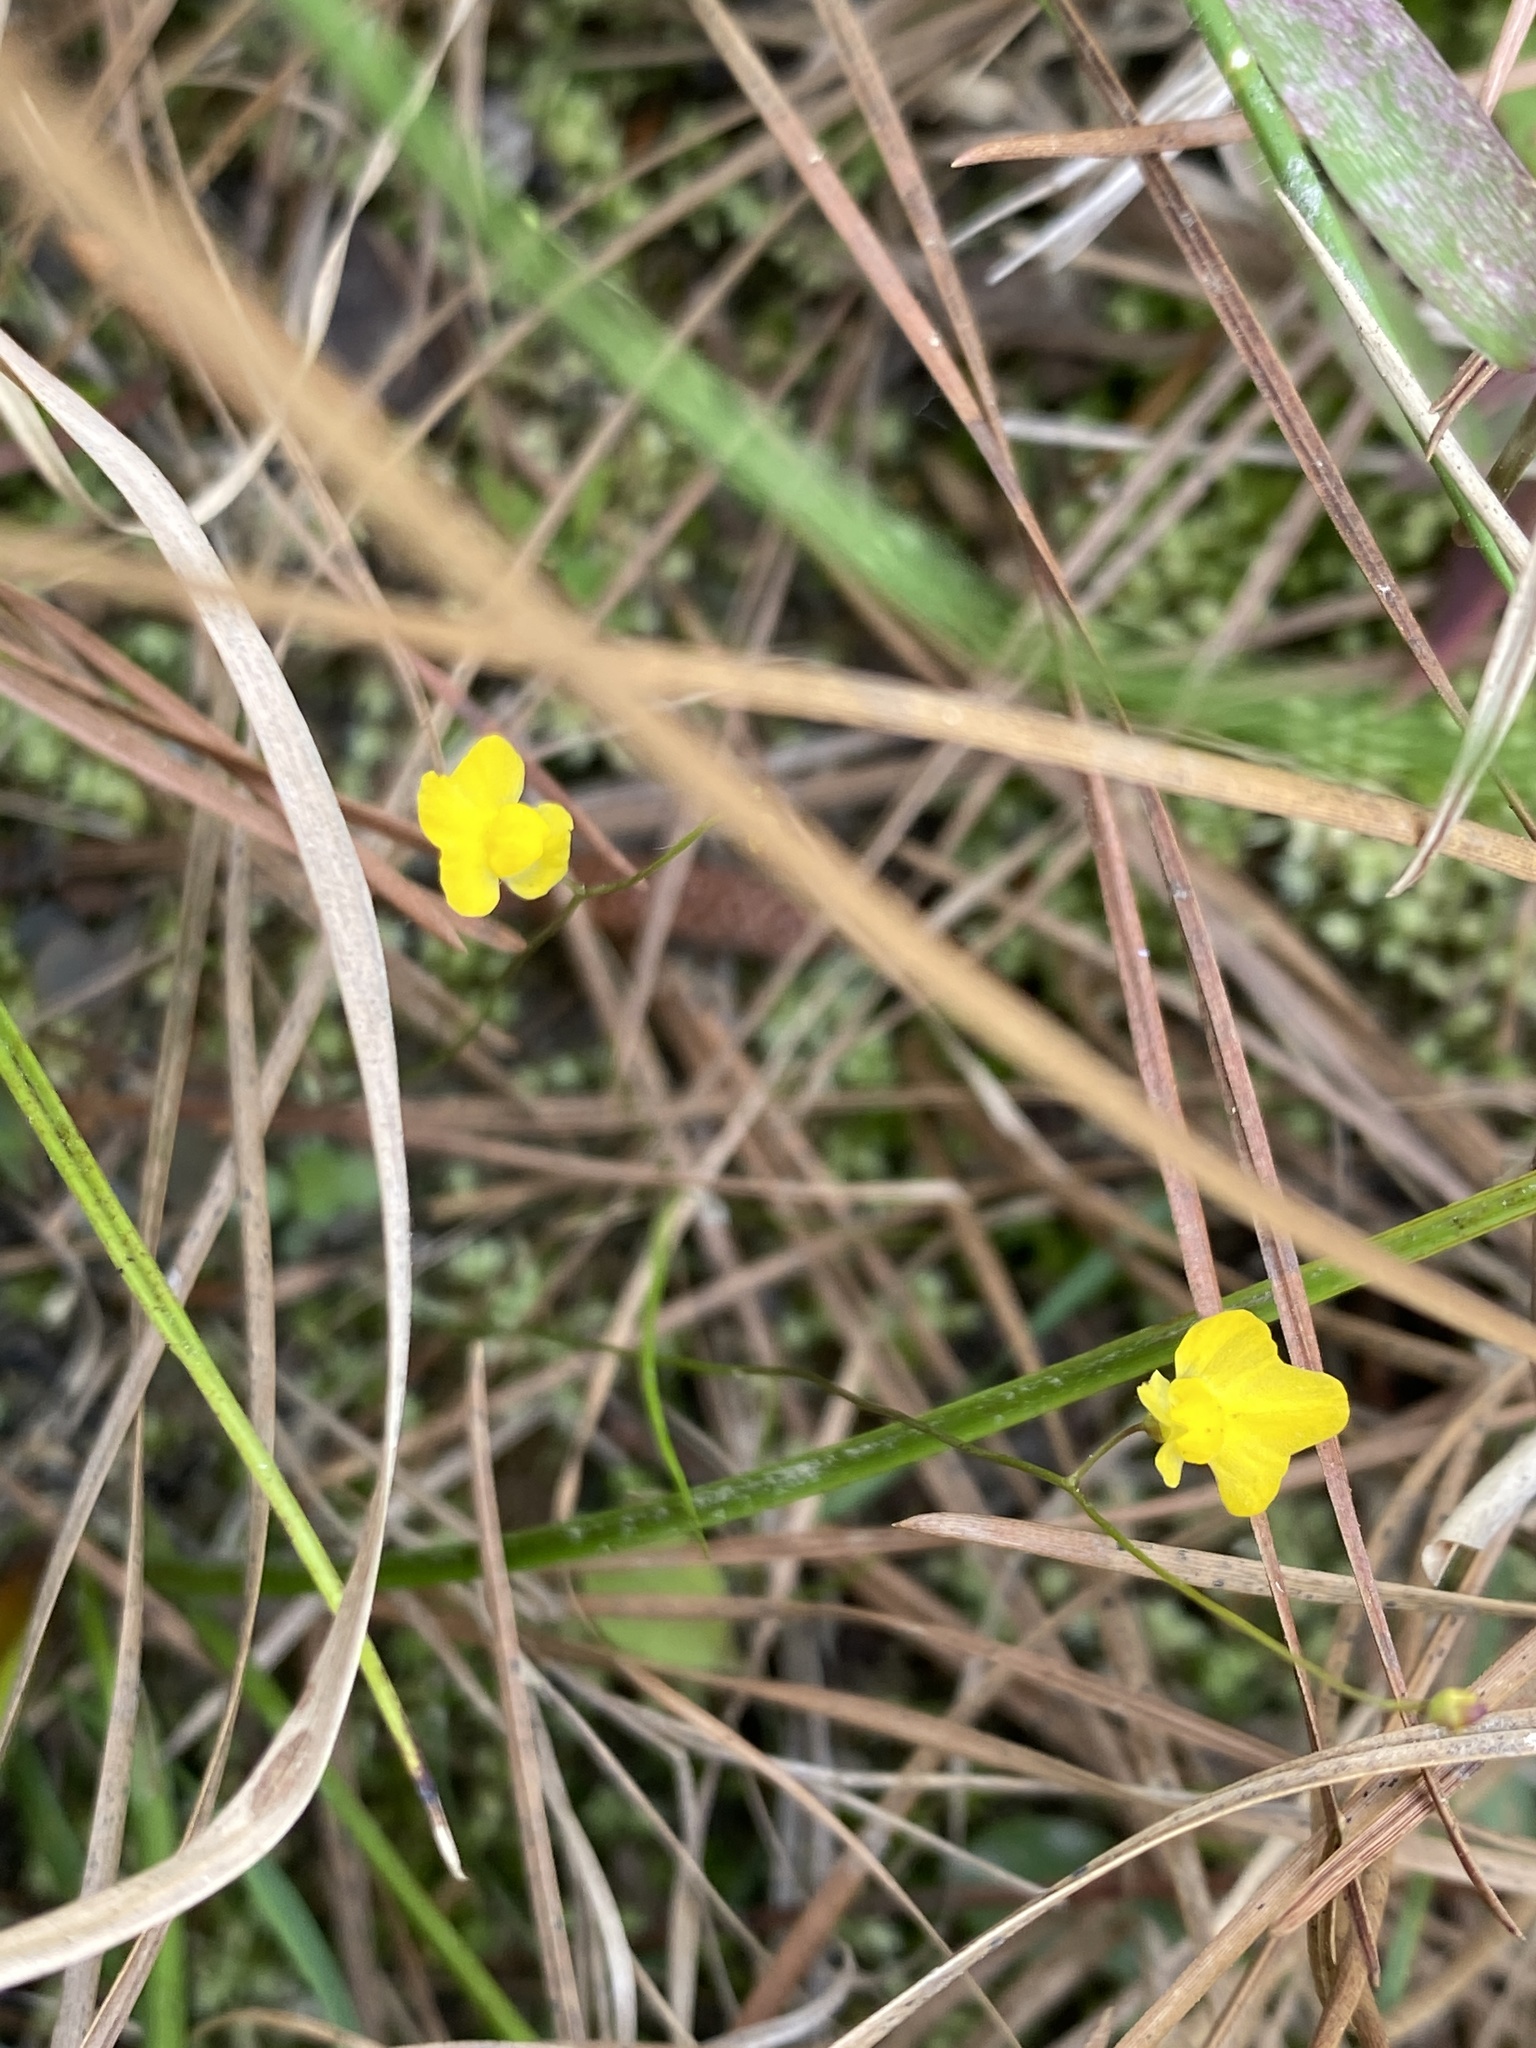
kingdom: Plantae
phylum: Tracheophyta
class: Magnoliopsida
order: Lamiales
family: Lentibulariaceae
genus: Utricularia
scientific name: Utricularia subulata
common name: Tiny bladderwort
